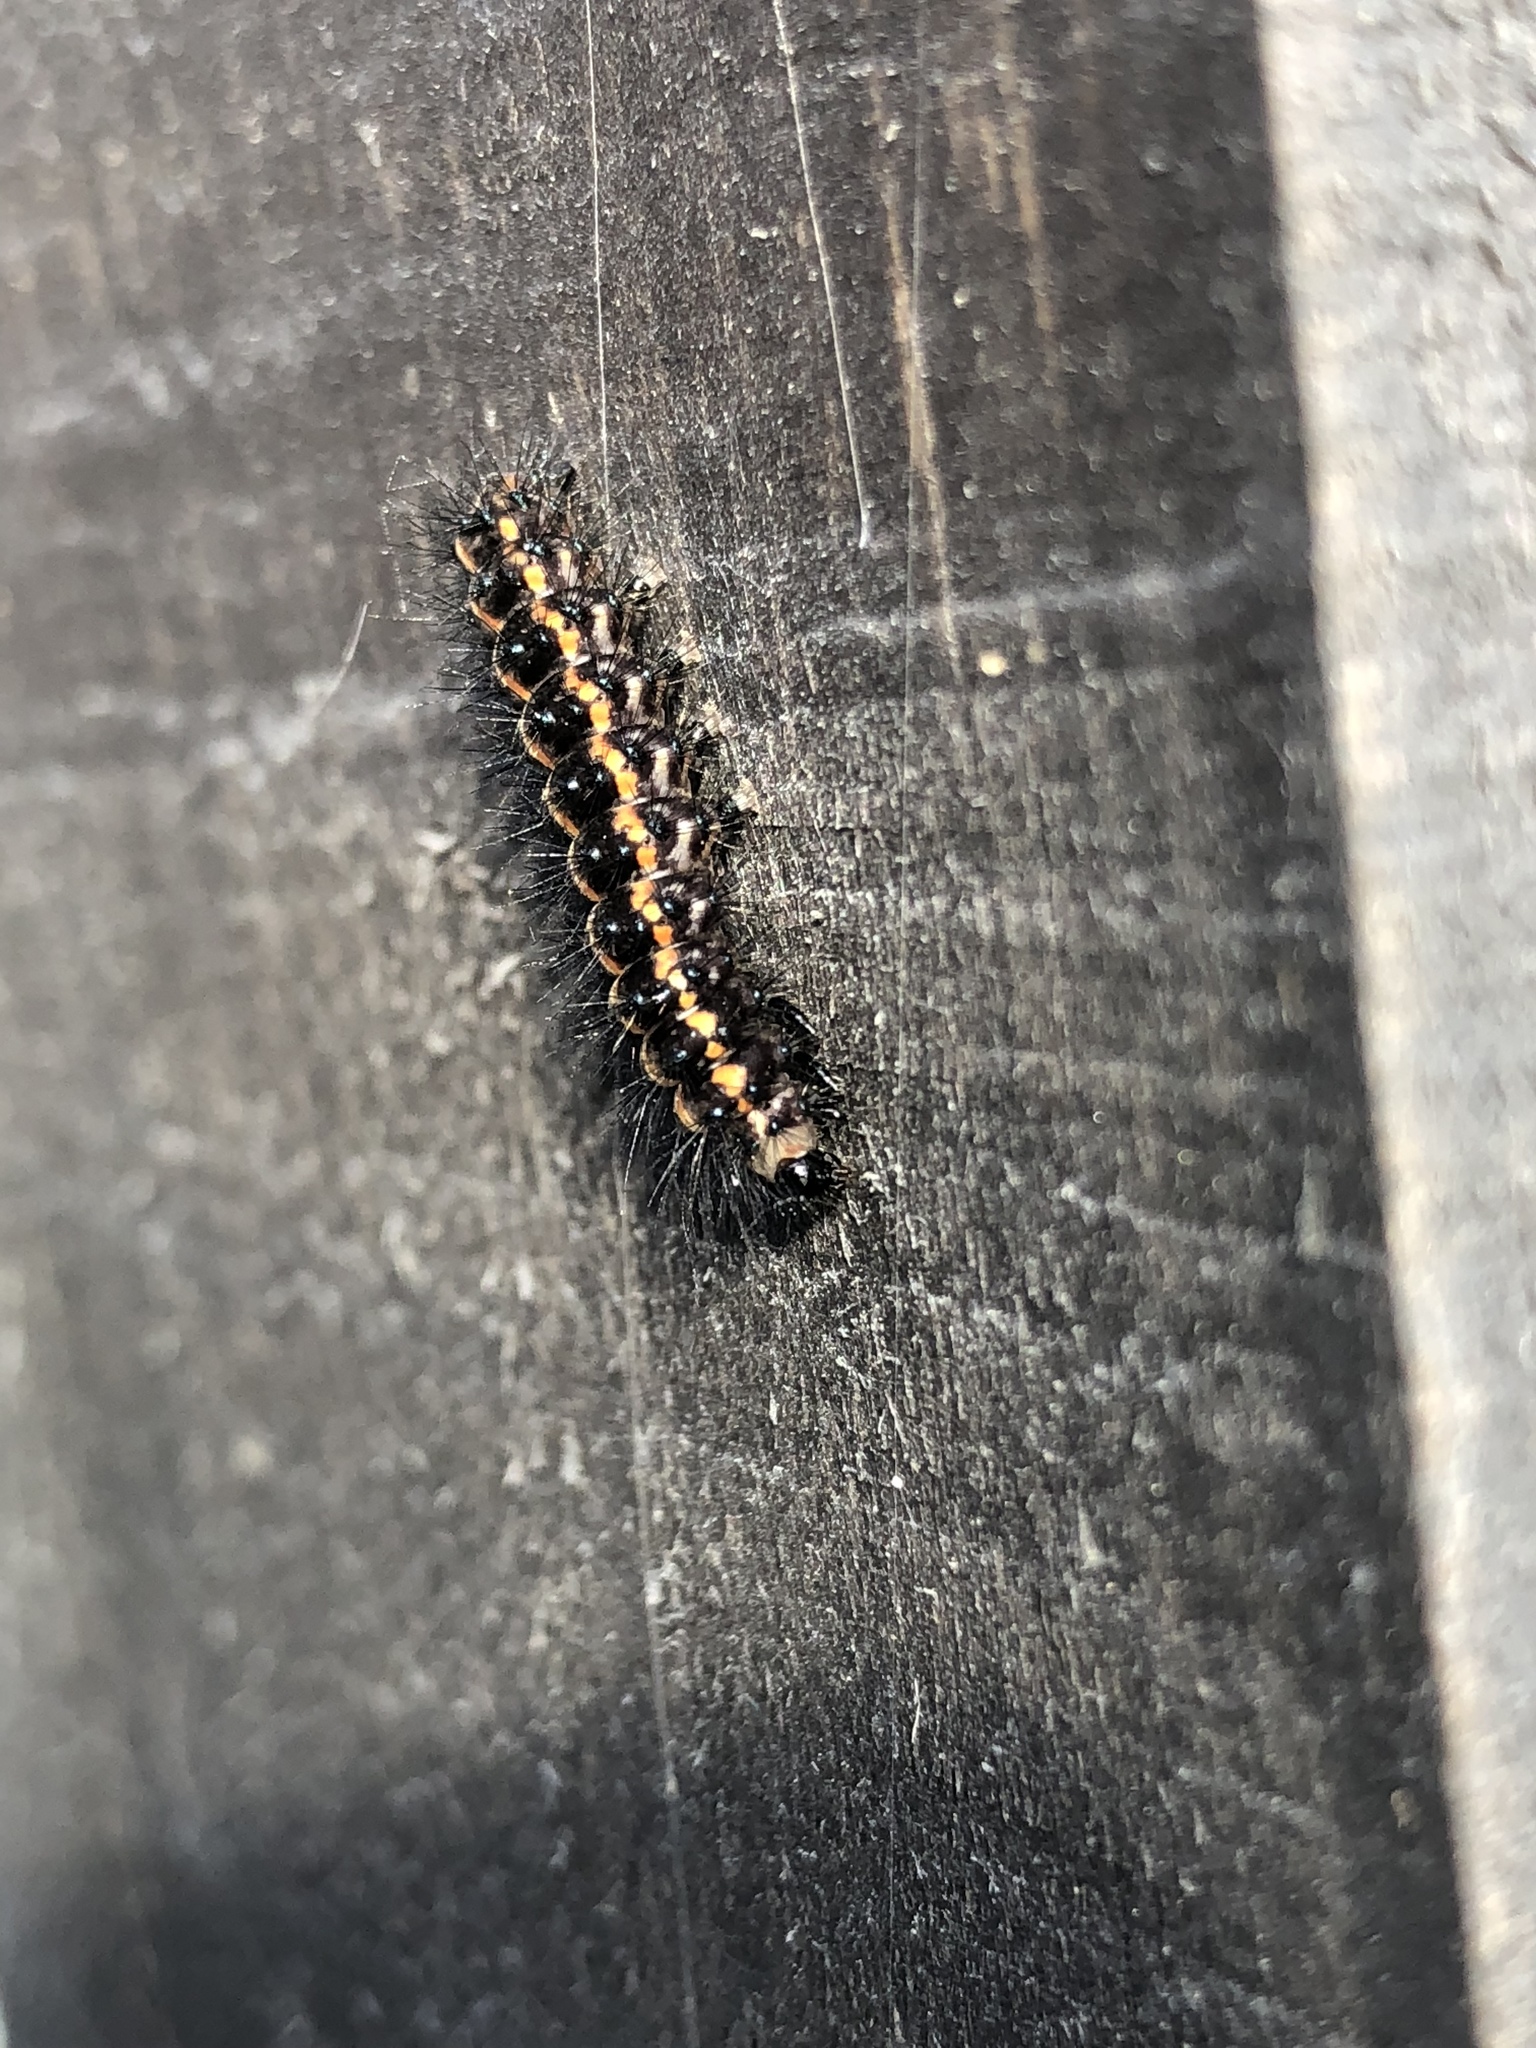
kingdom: Animalia
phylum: Arthropoda
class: Insecta
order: Lepidoptera
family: Erebidae
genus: Nyctemera
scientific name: Nyctemera annulatum
